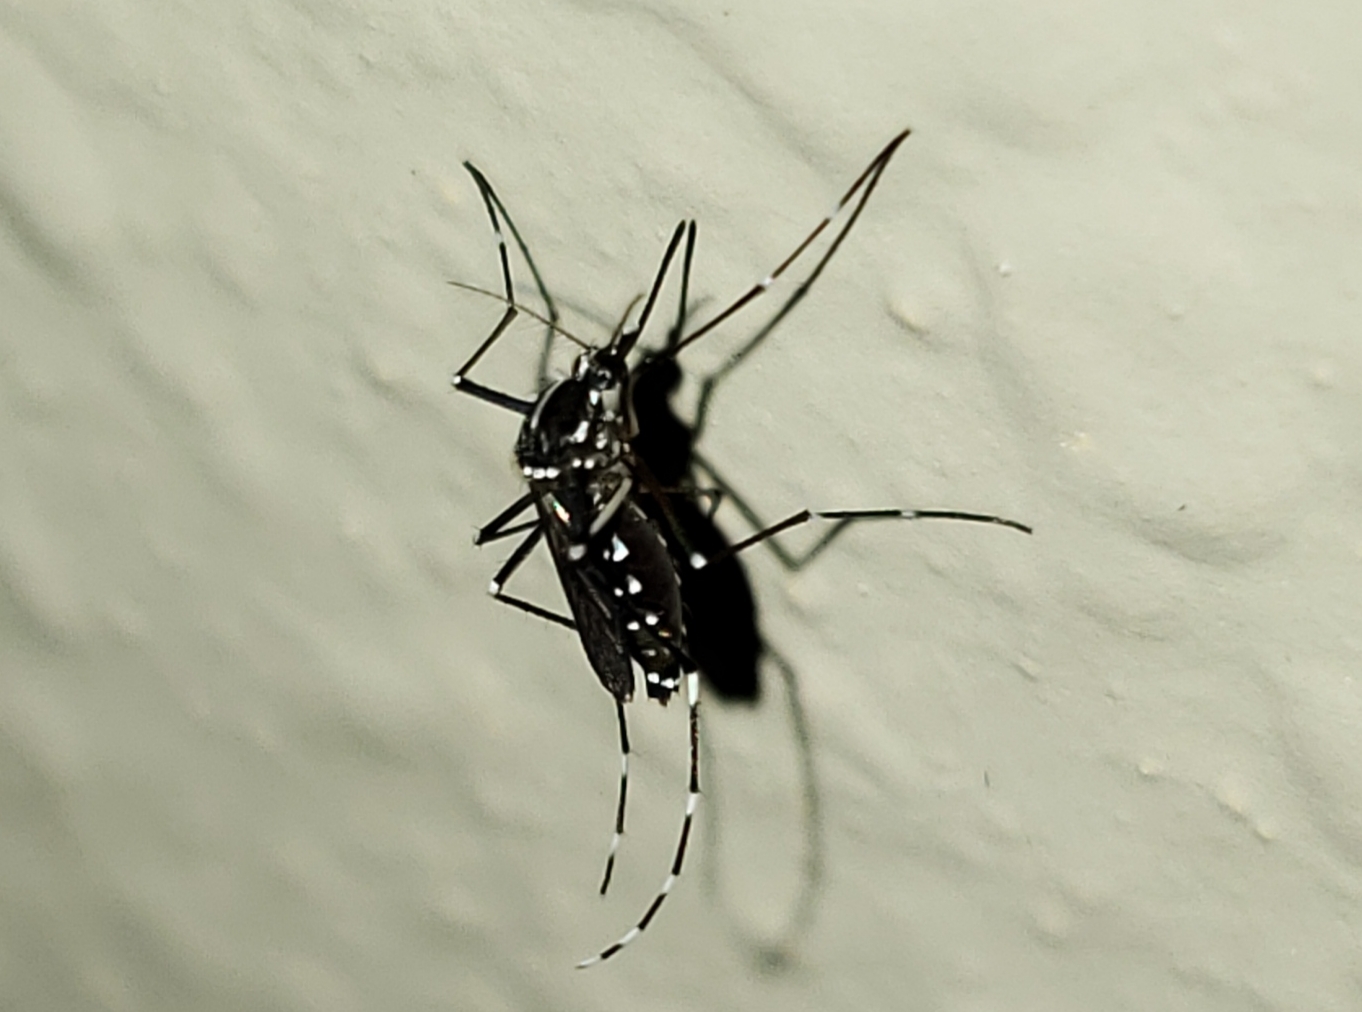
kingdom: Animalia
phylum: Arthropoda
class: Insecta
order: Diptera
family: Culicidae
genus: Aedes
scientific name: Aedes albopictus
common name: Tiger mosquito
